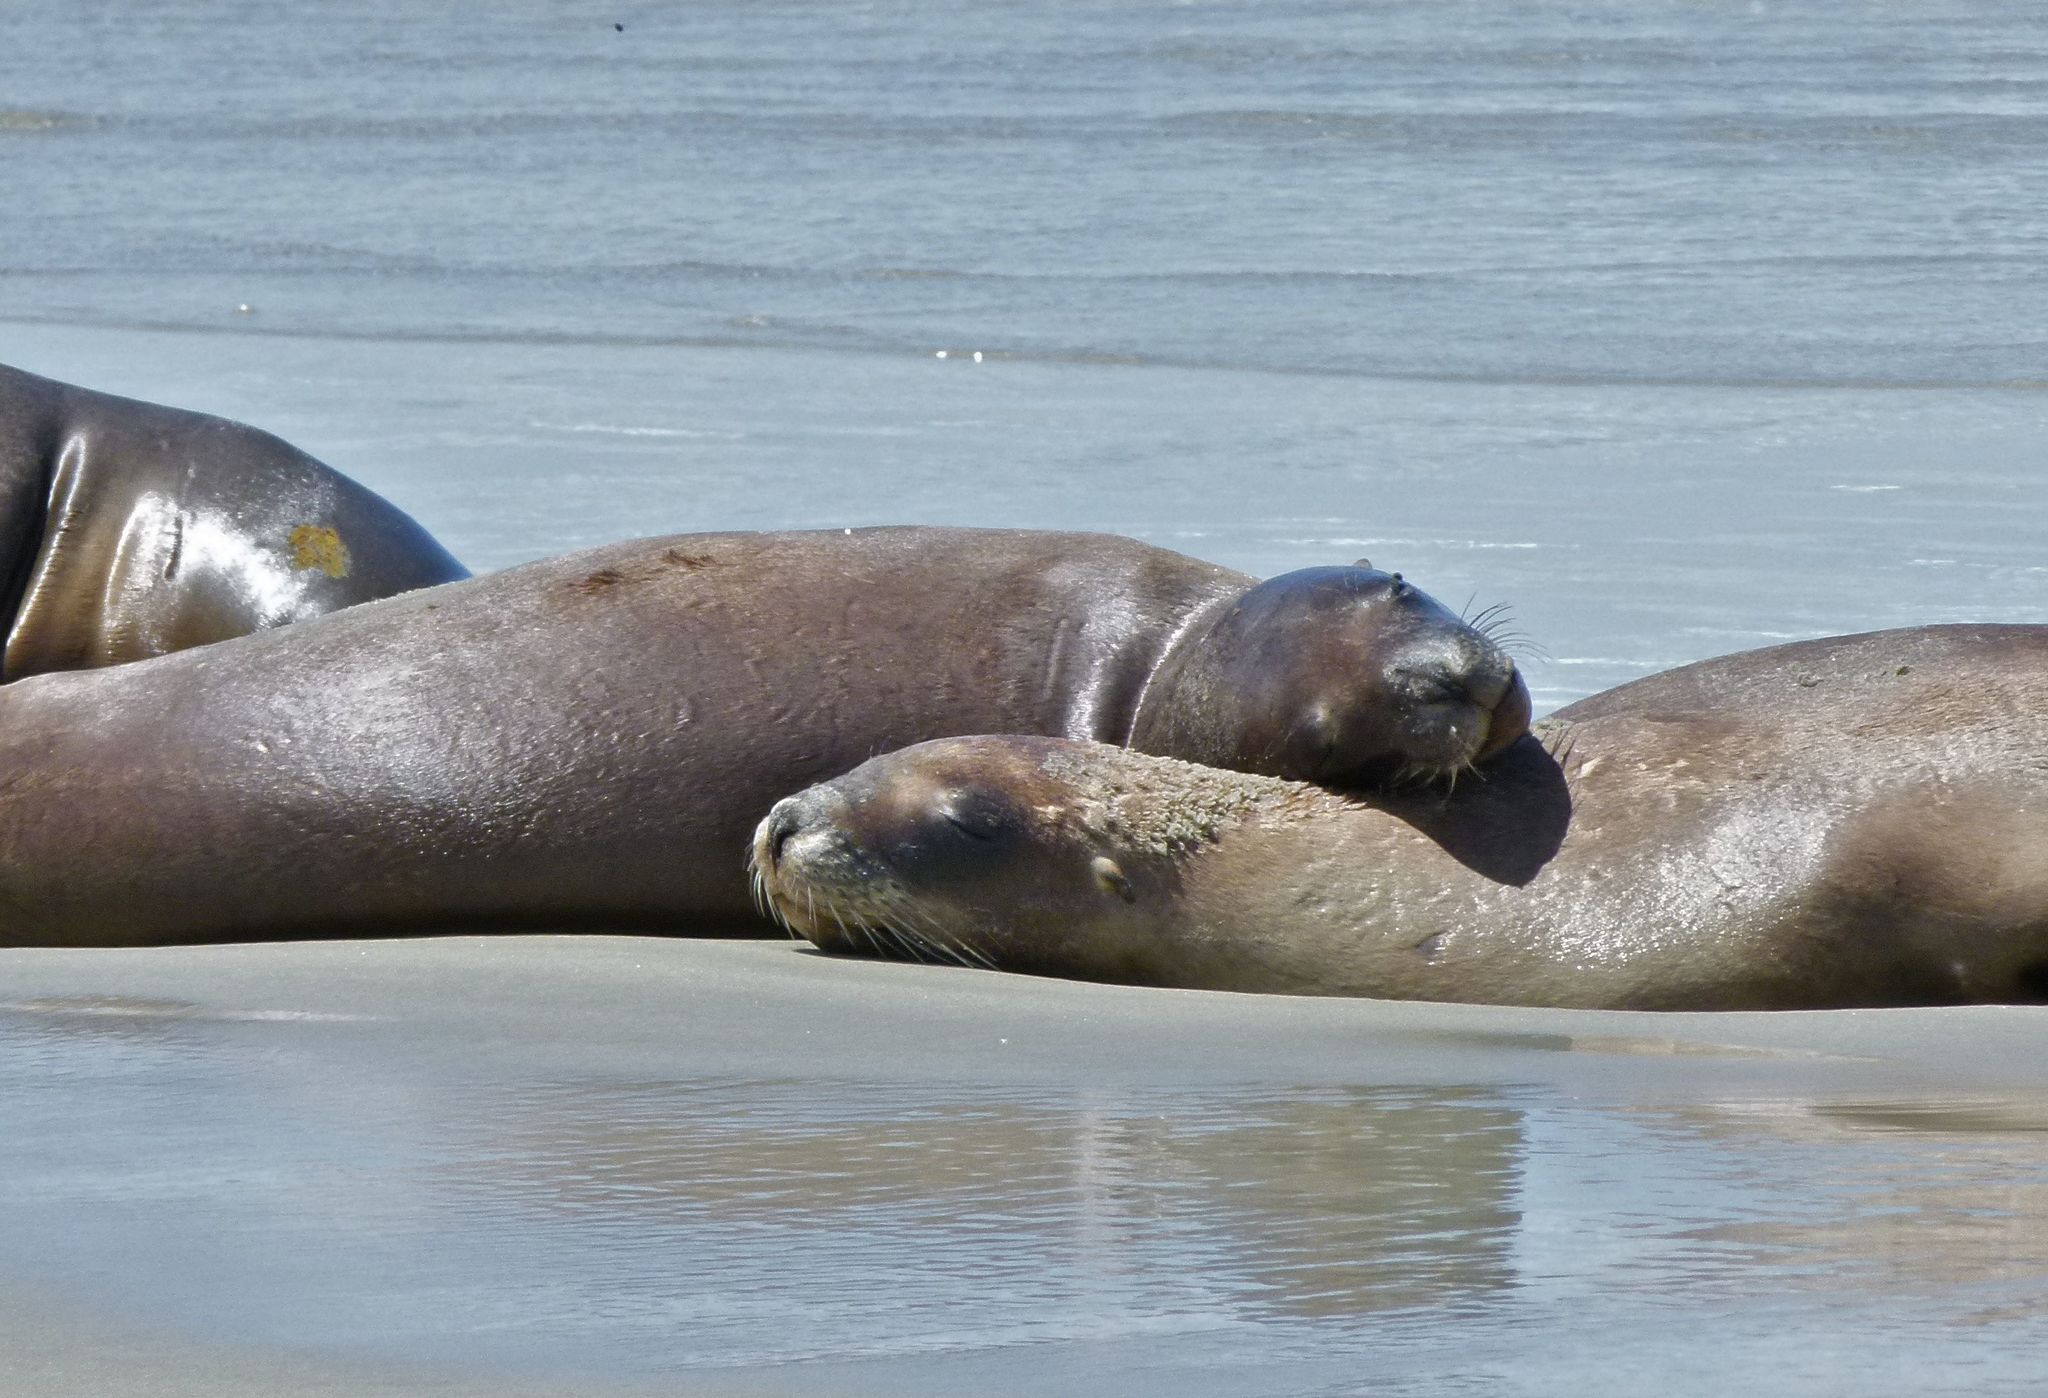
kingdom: Animalia
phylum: Chordata
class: Mammalia
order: Carnivora
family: Otariidae
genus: Phocarctos
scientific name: Phocarctos hookeri
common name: New zealand sea lion
